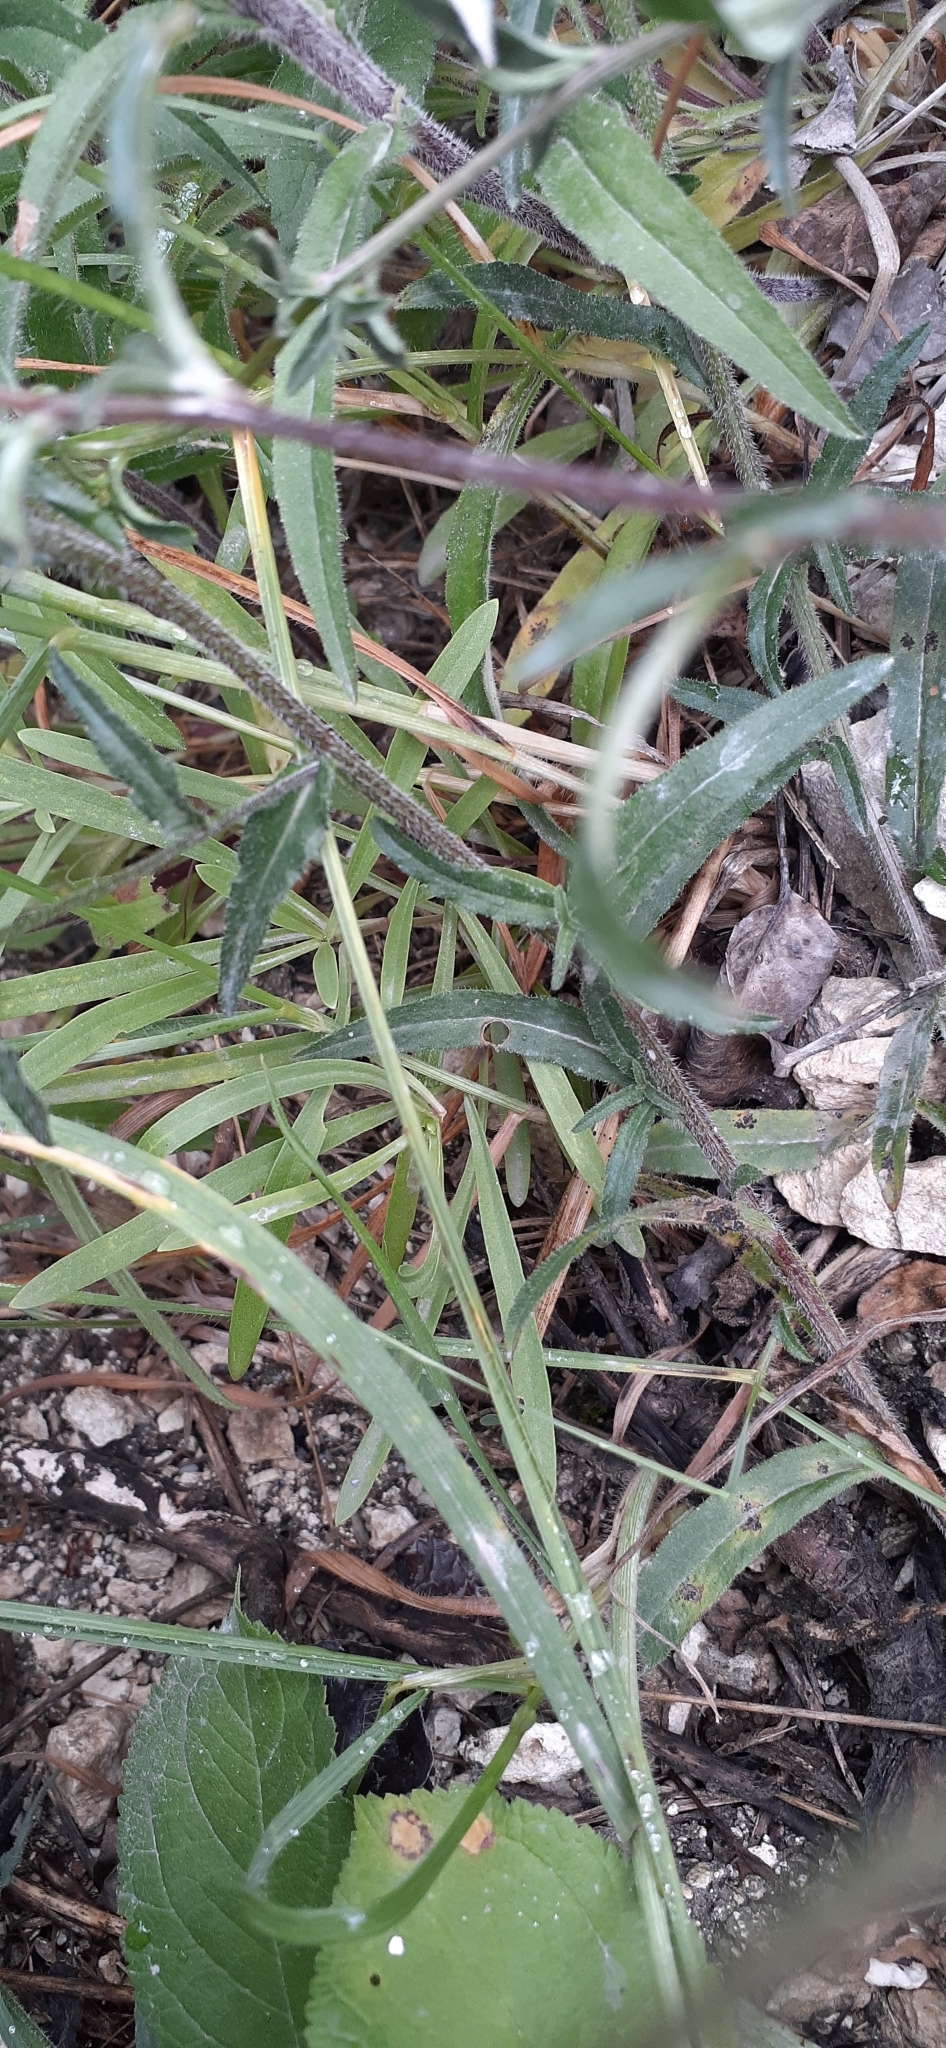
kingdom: Plantae
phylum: Tracheophyta
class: Magnoliopsida
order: Asterales
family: Campanulaceae
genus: Campanula
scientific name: Campanula sibirica
